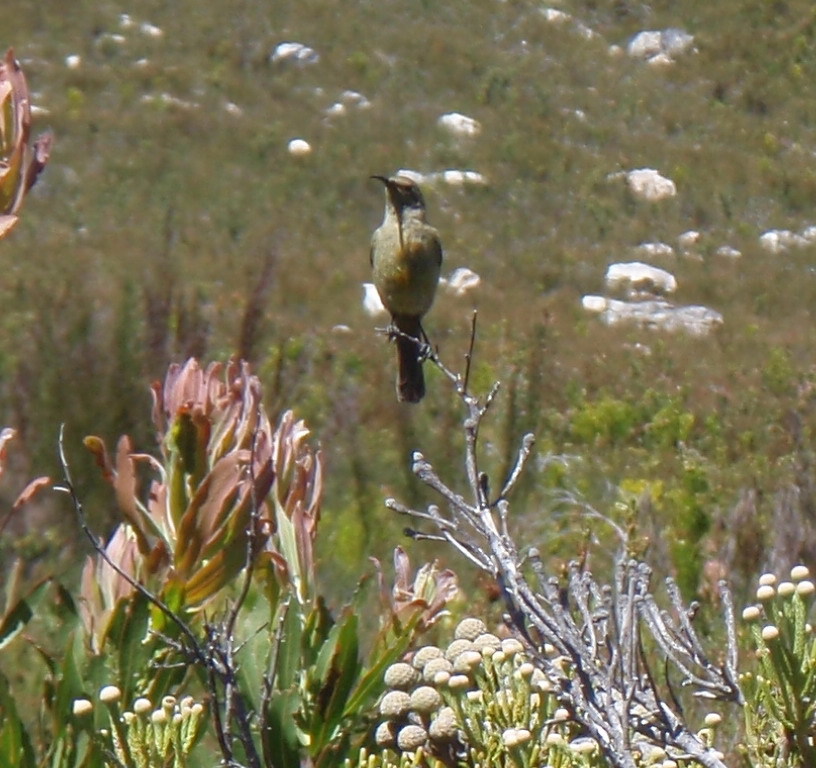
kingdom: Animalia
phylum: Chordata
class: Aves
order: Passeriformes
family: Nectariniidae
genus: Anthobaphes
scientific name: Anthobaphes violacea
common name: Orange-breasted sunbird
